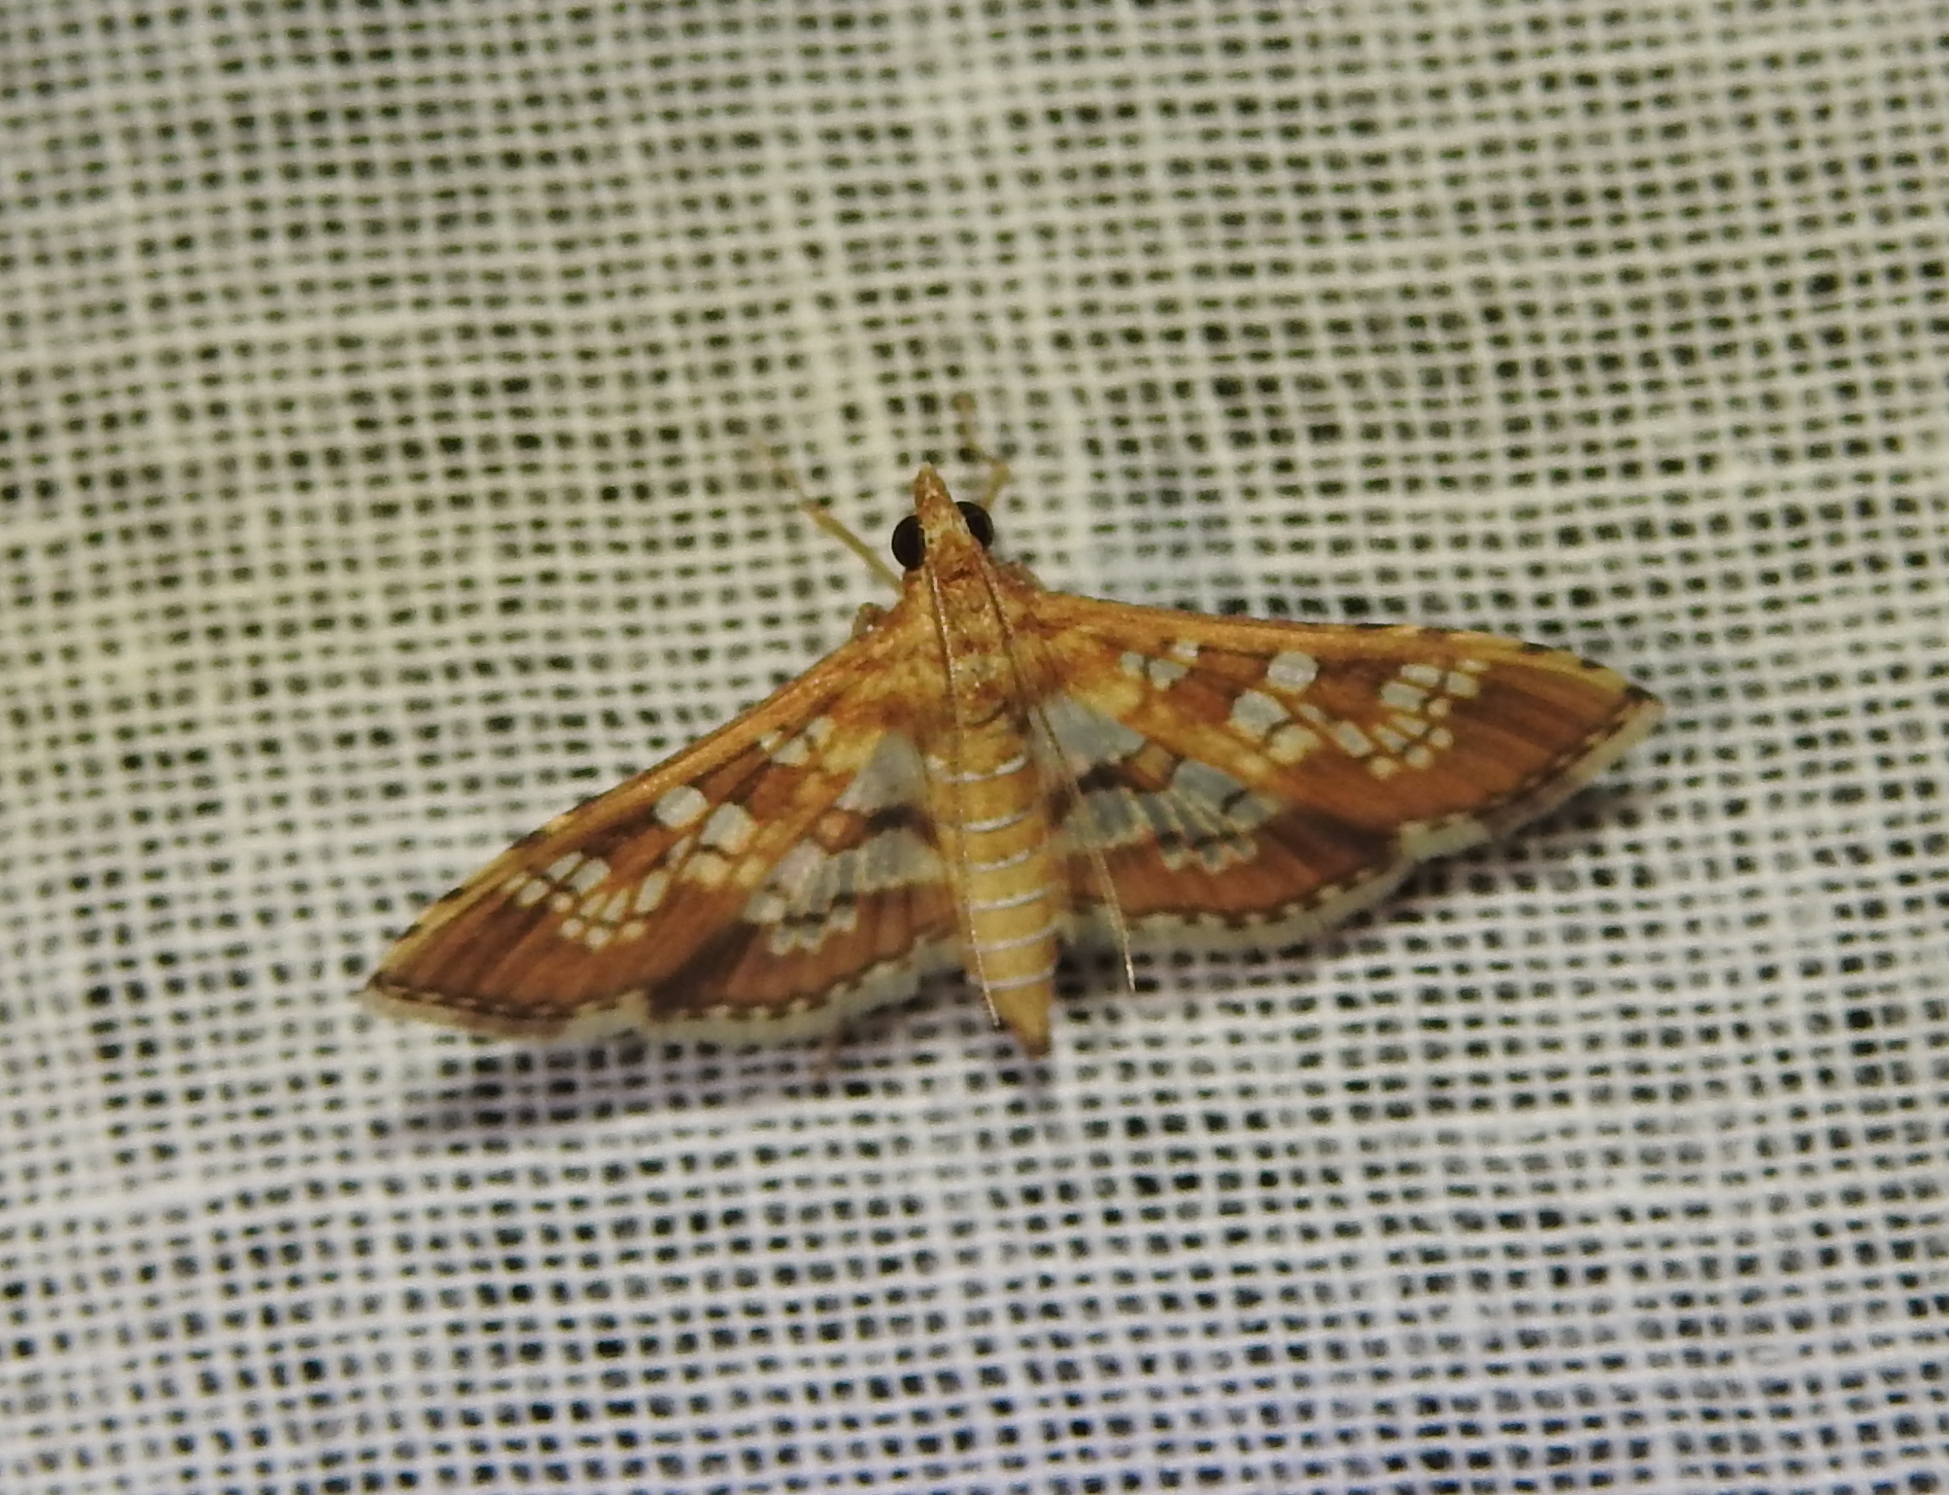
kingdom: Animalia
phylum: Arthropoda
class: Insecta
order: Lepidoptera
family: Crambidae
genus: Sameodes
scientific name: Sameodes cancellalis
